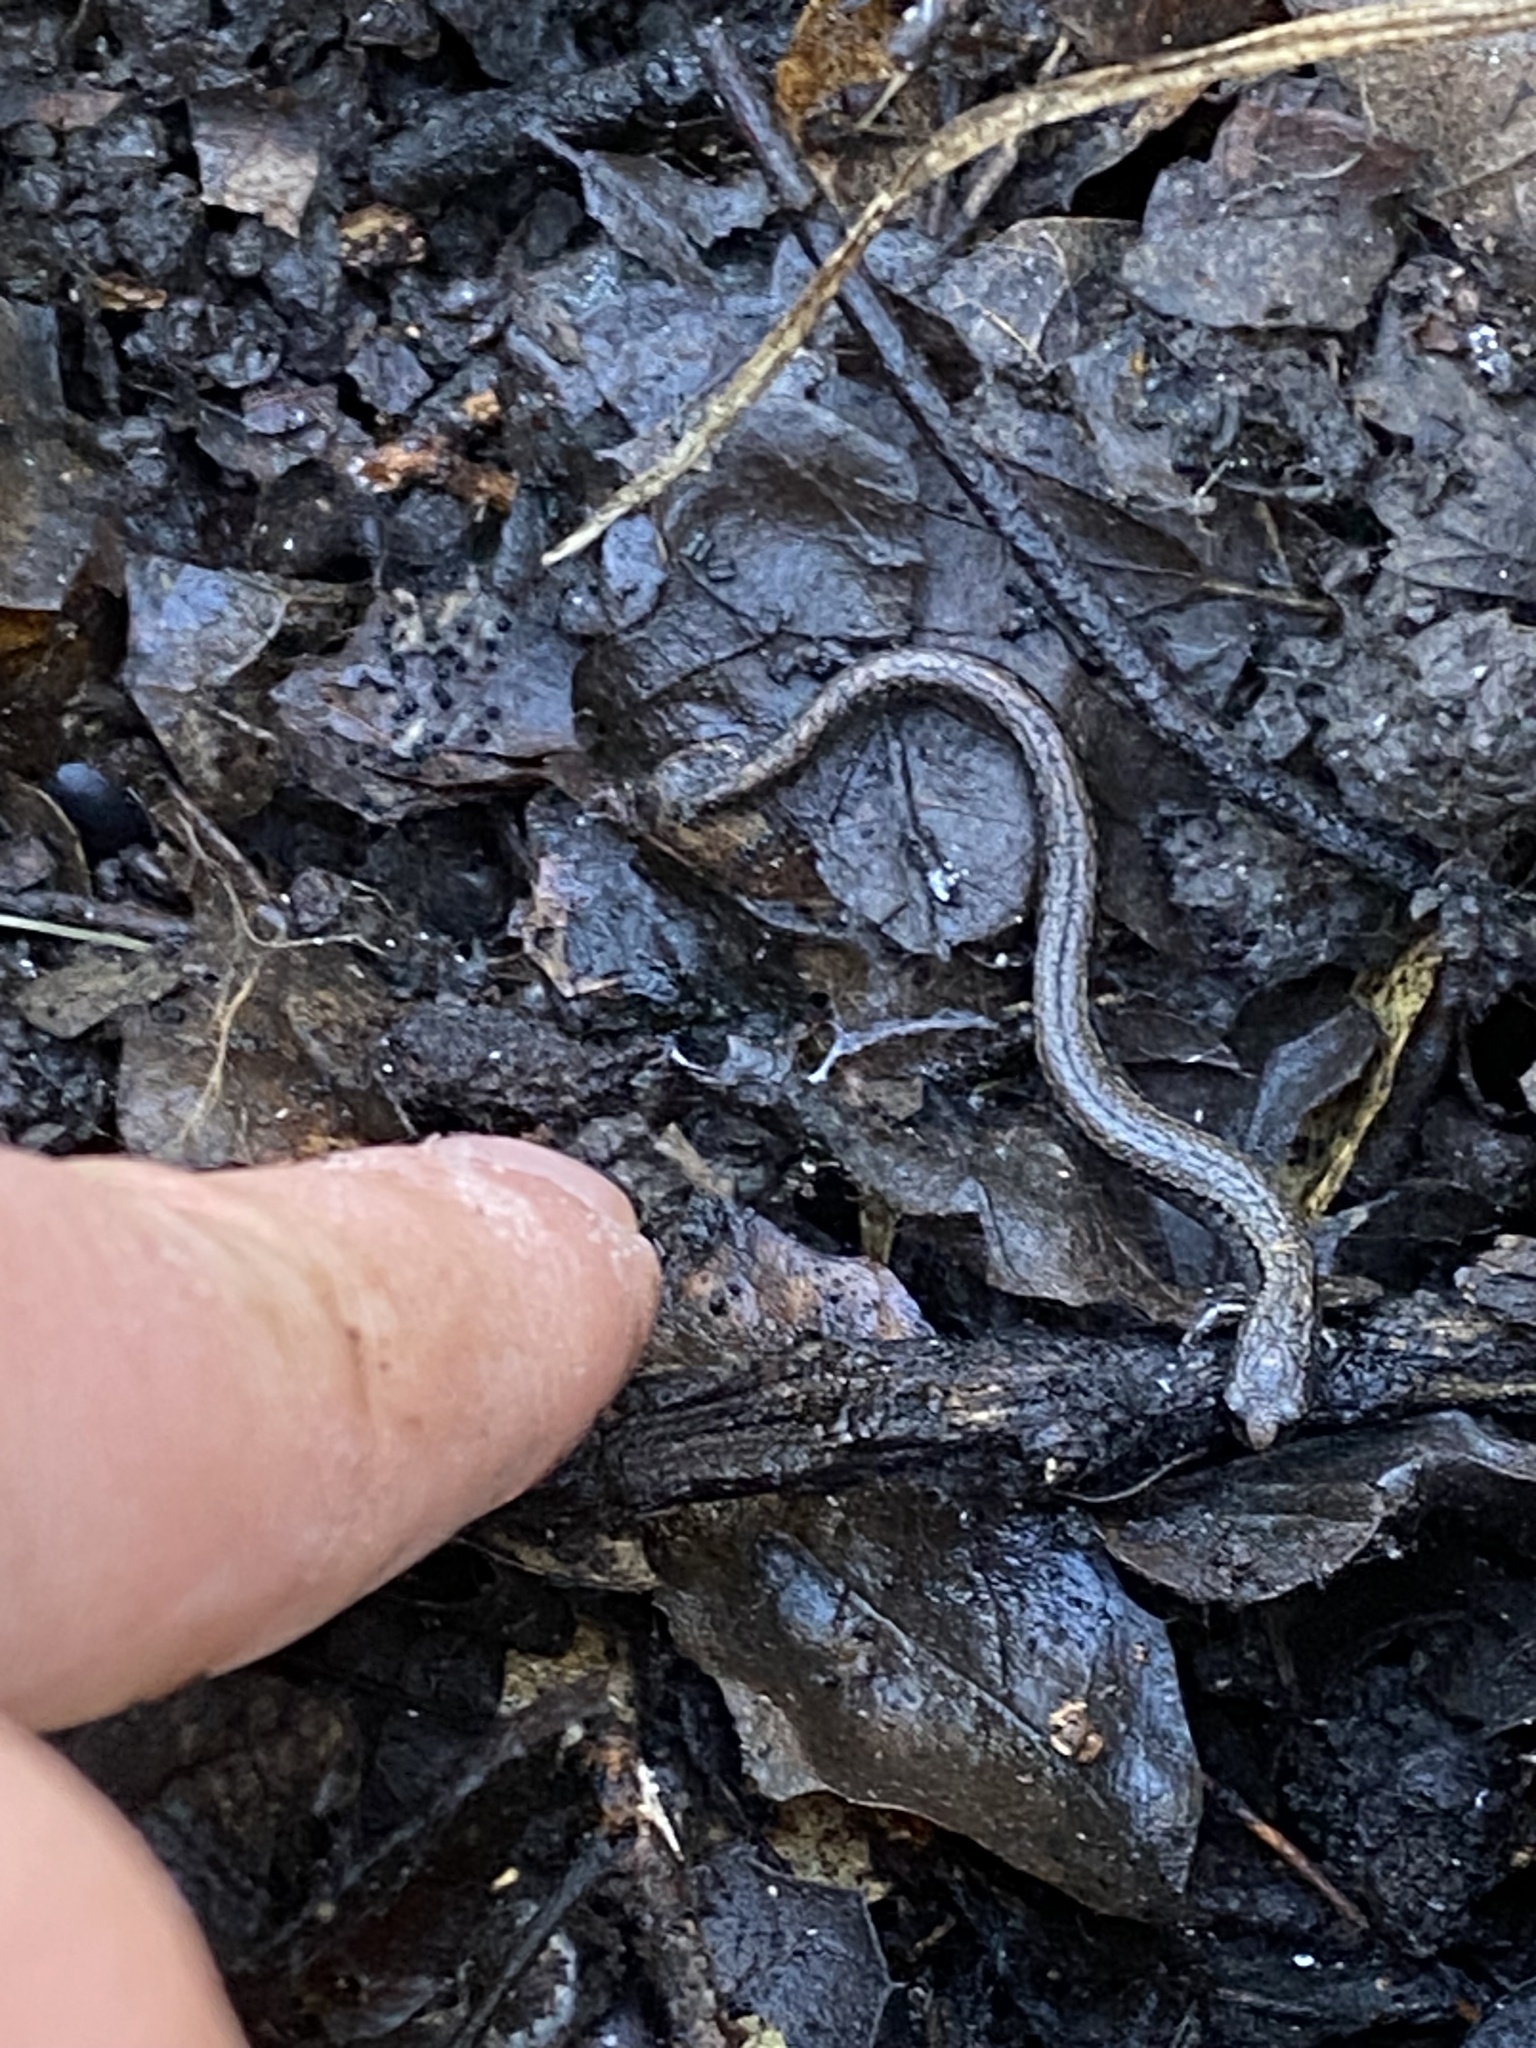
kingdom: Animalia
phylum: Chordata
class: Amphibia
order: Caudata
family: Plethodontidae
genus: Batrachoseps
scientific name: Batrachoseps attenuatus
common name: California slender salamander
